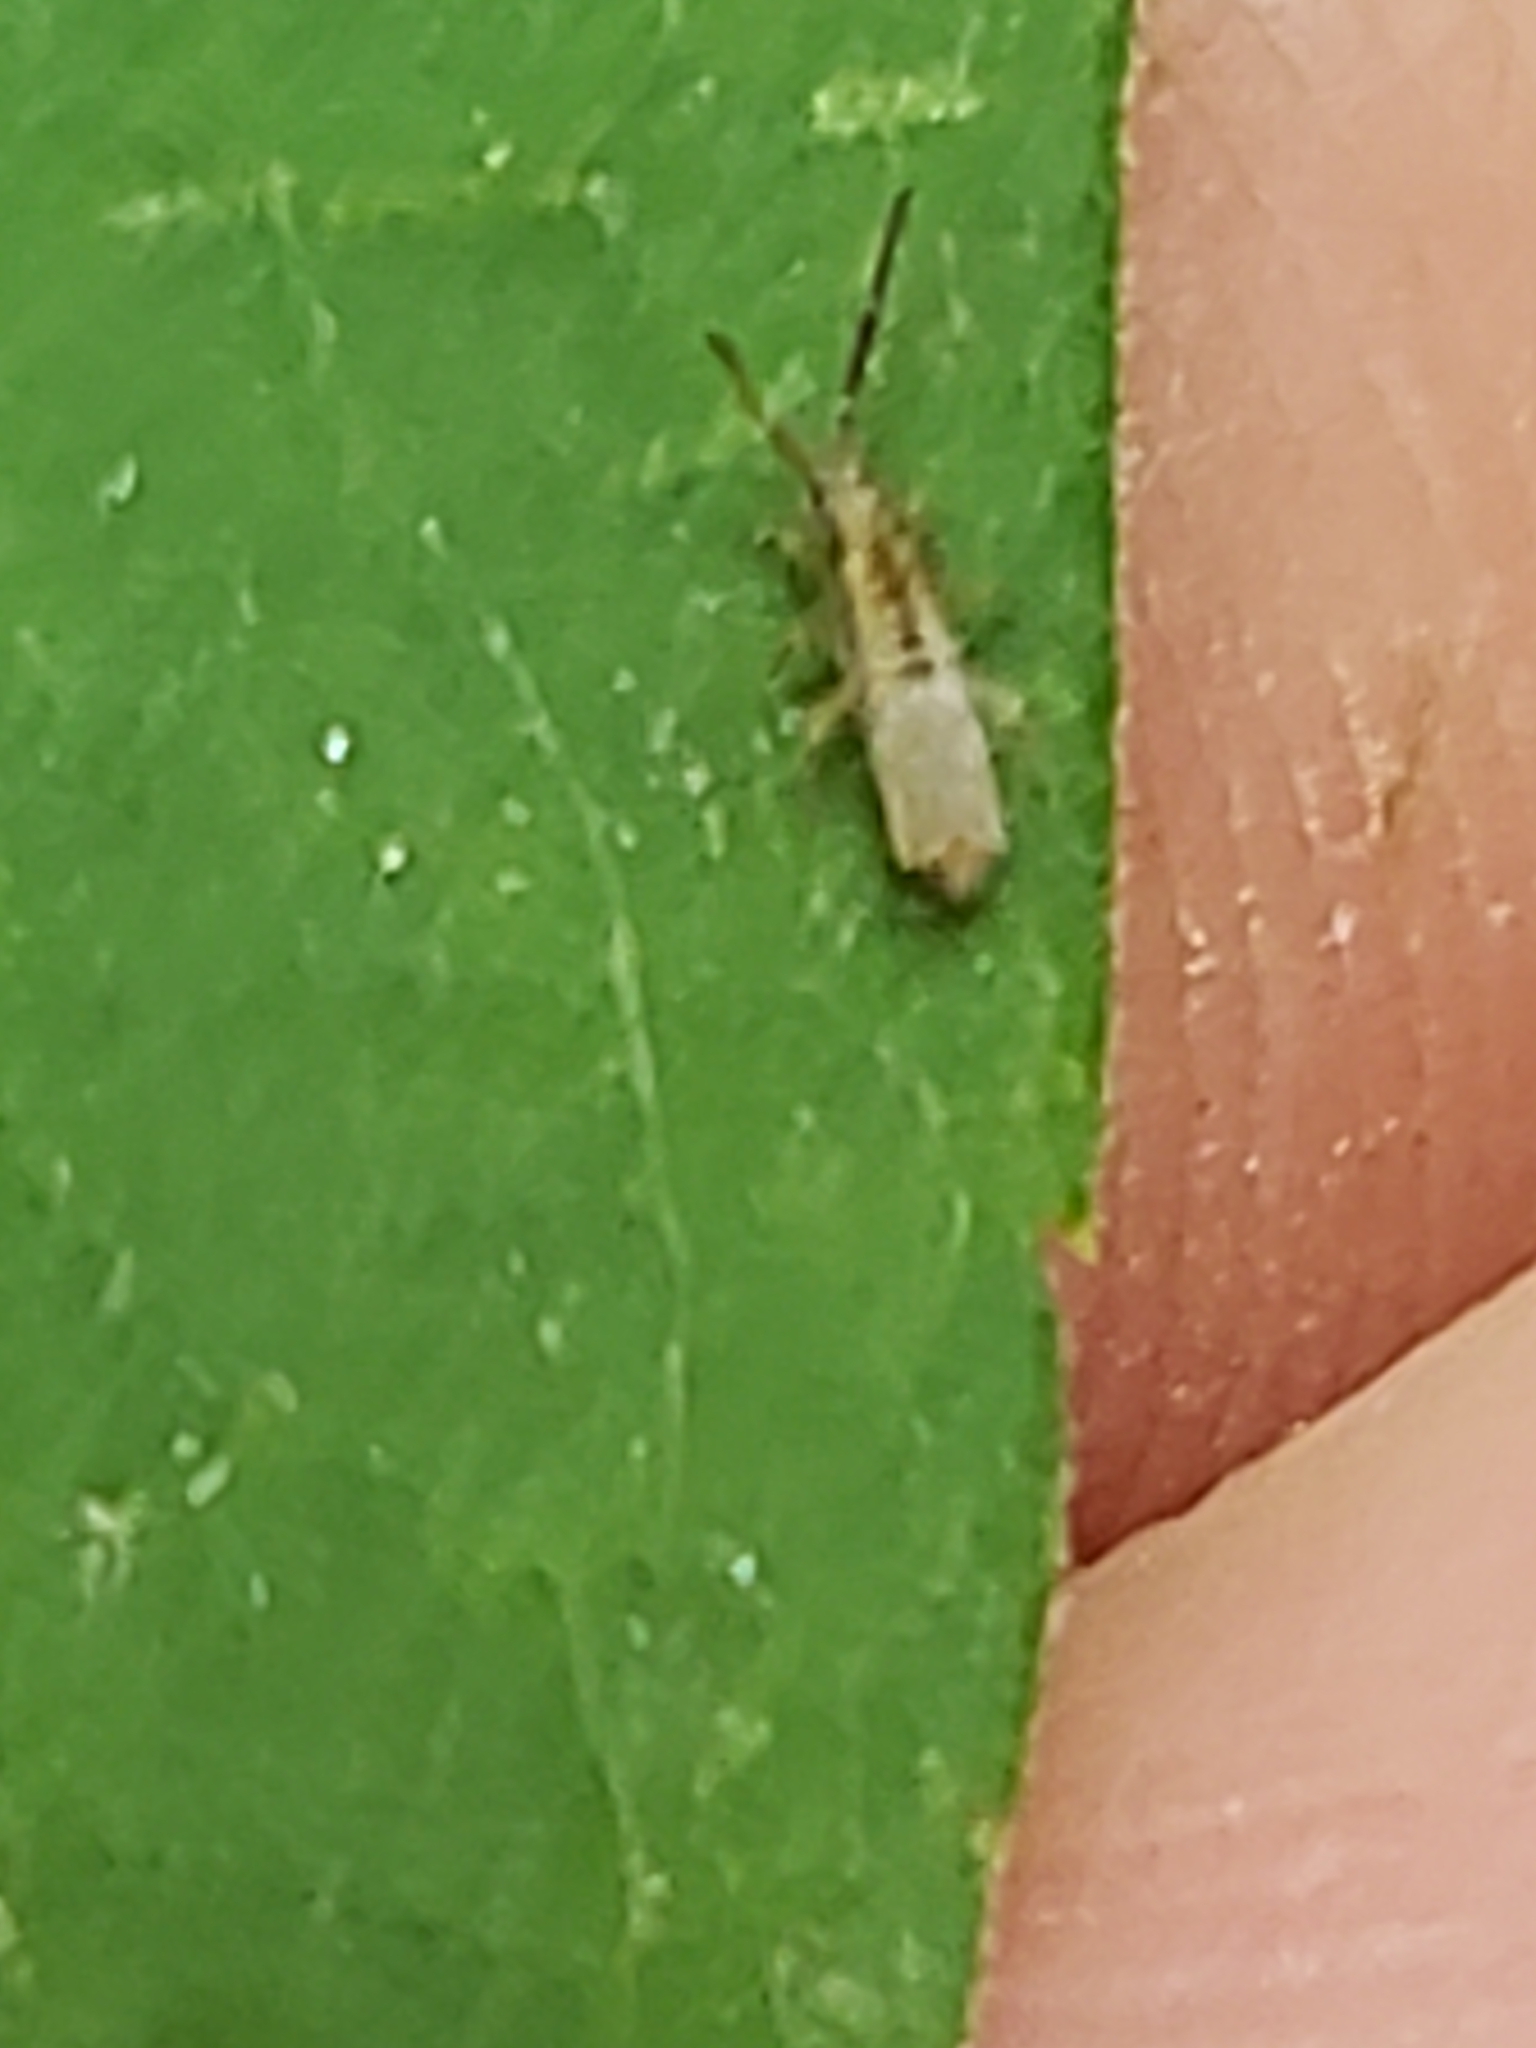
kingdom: Animalia
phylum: Arthropoda
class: Collembola
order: Entomobryomorpha
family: Entomobryidae
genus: Homidia
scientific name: Homidia socia
